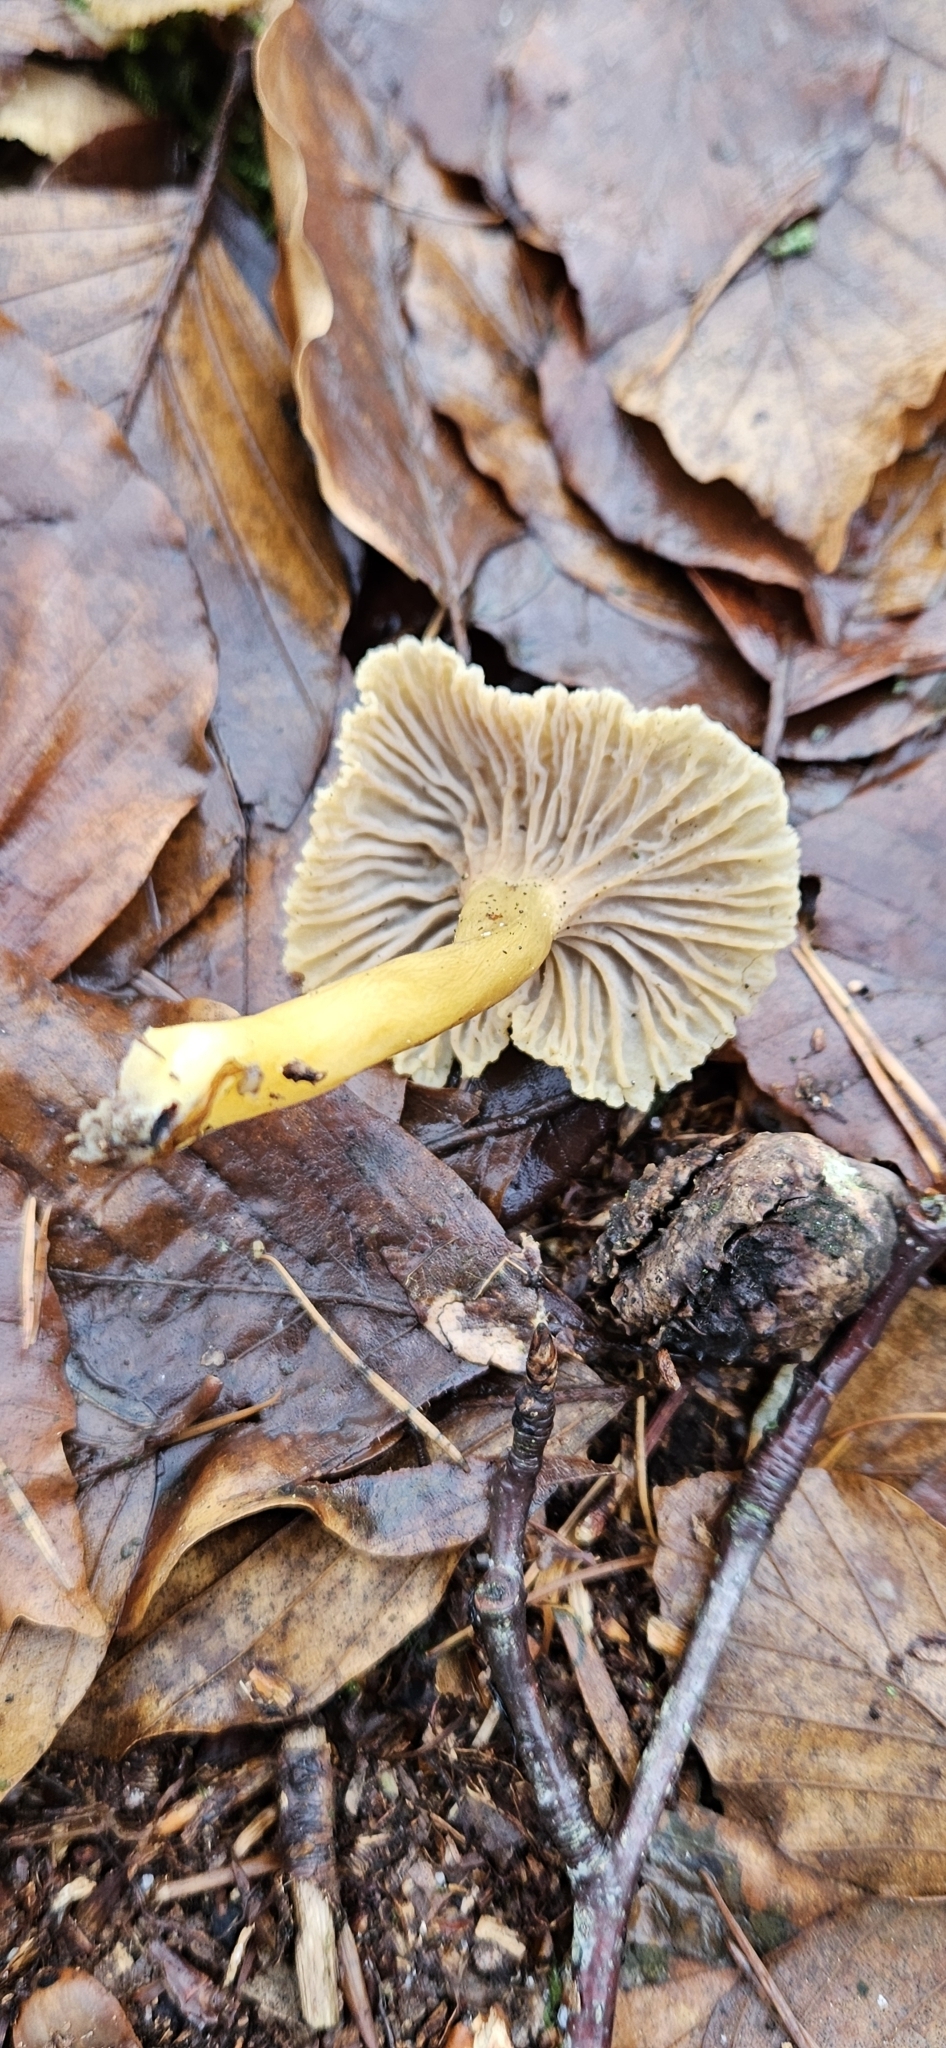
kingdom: Fungi
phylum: Basidiomycota
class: Agaricomycetes
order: Cantharellales
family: Hydnaceae
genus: Craterellus
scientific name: Craterellus tubaeformis
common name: Yellowfoot
